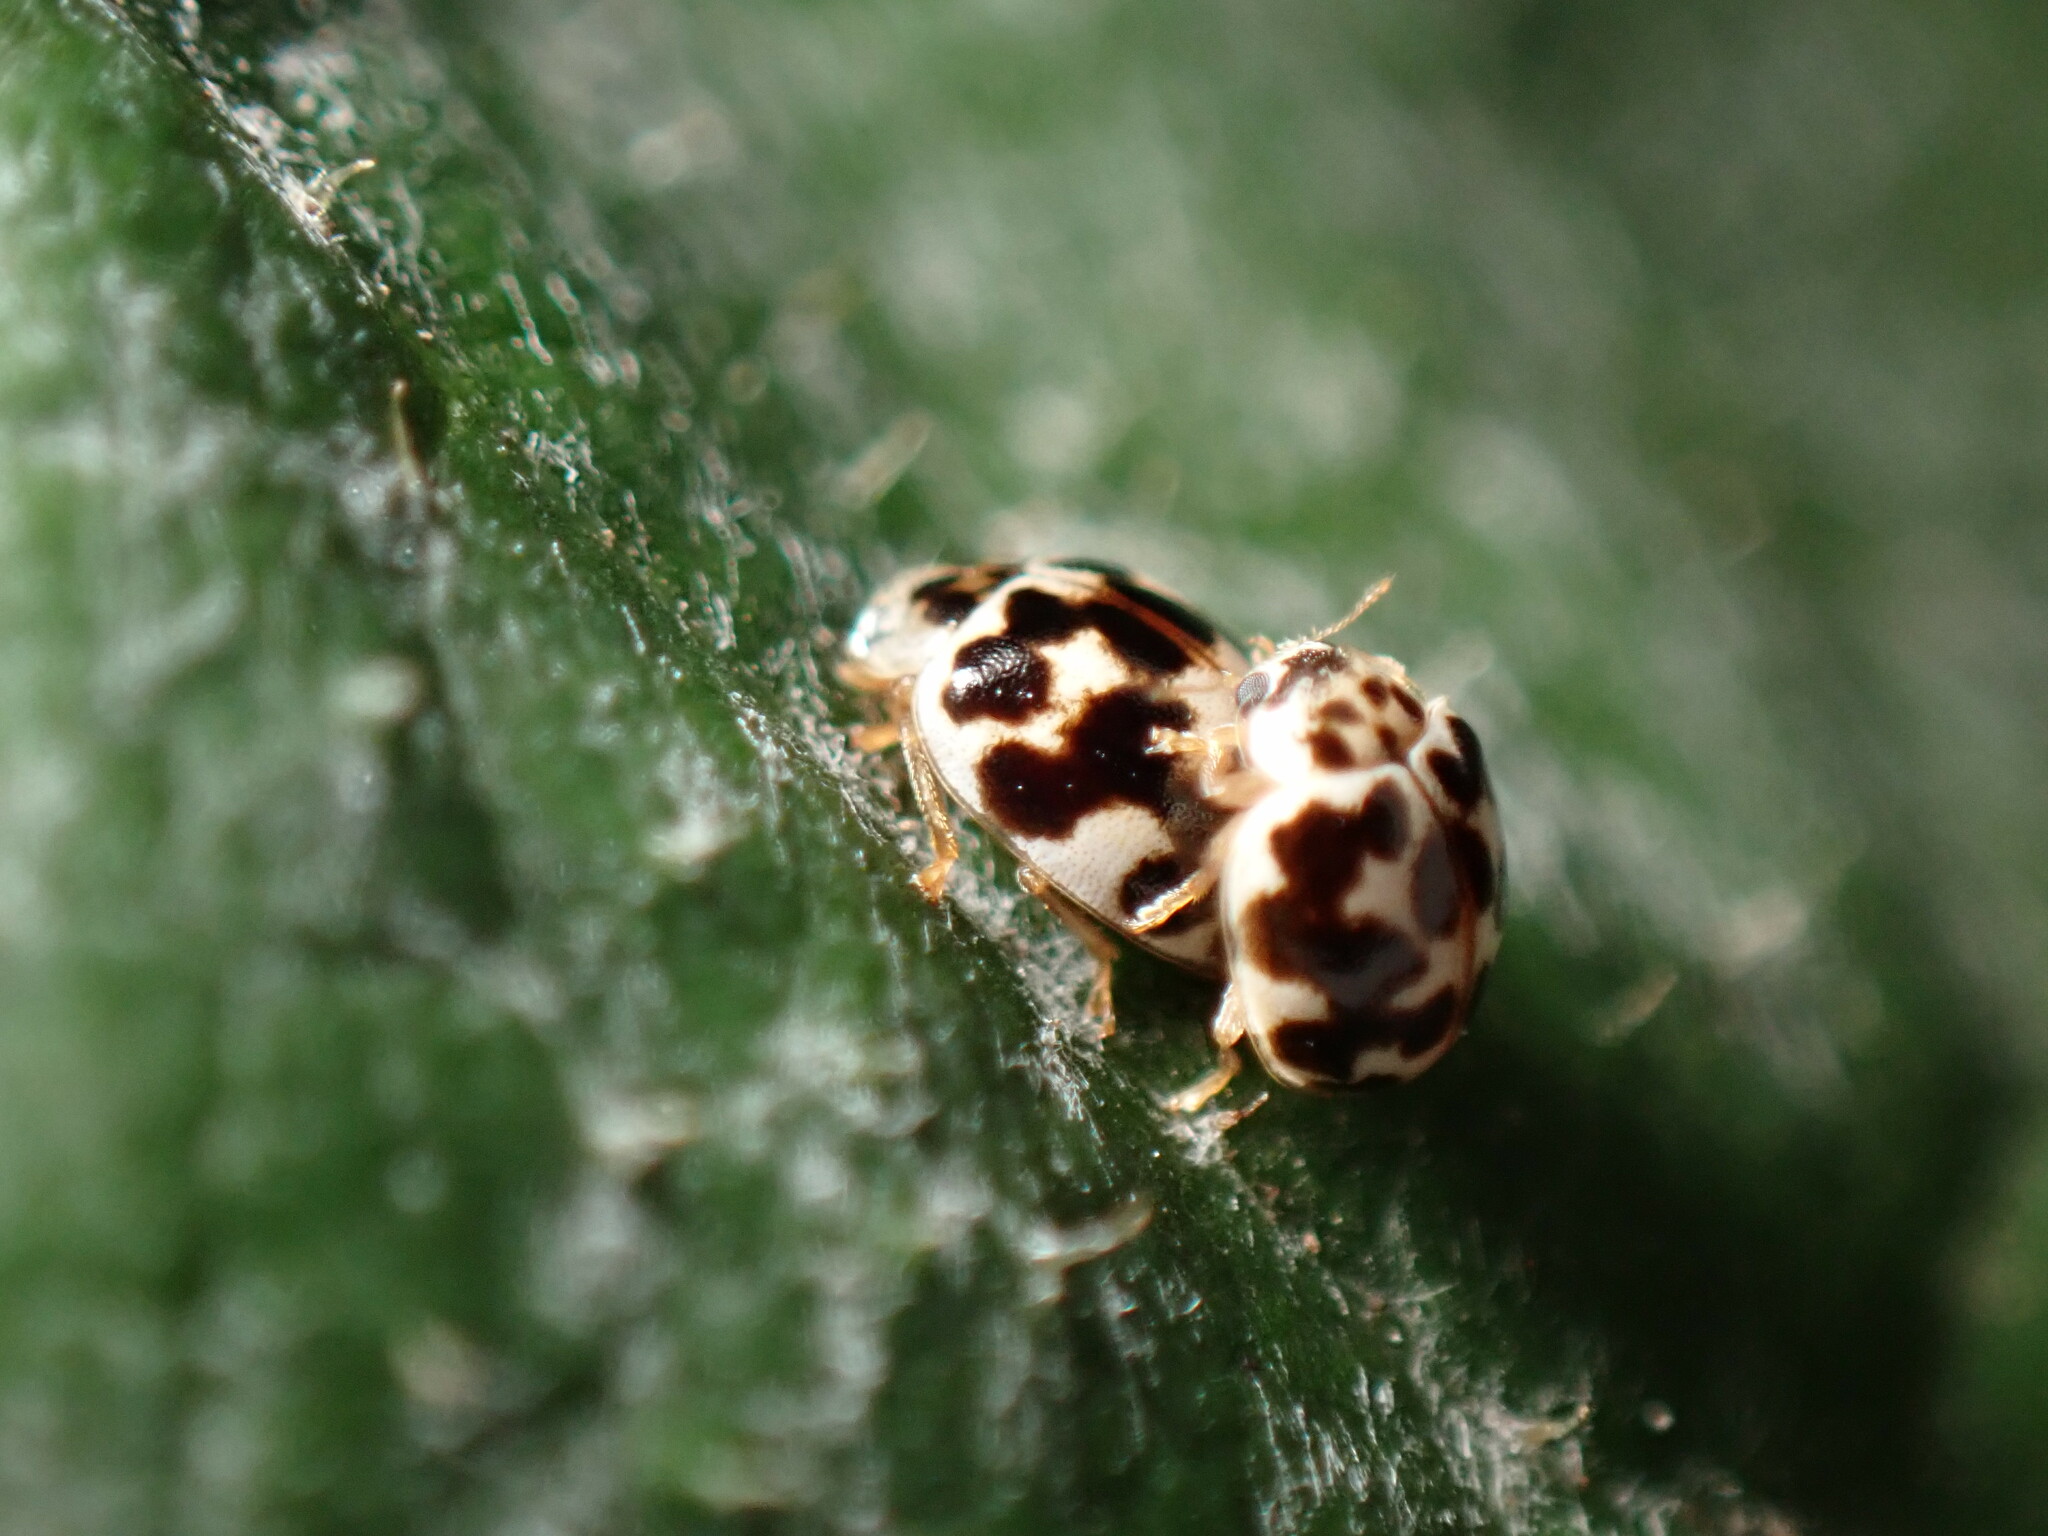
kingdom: Animalia
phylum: Arthropoda
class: Insecta
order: Coleoptera
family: Coccinellidae
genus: Psyllobora
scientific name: Psyllobora vigintimaculata
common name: Ladybird beetle
